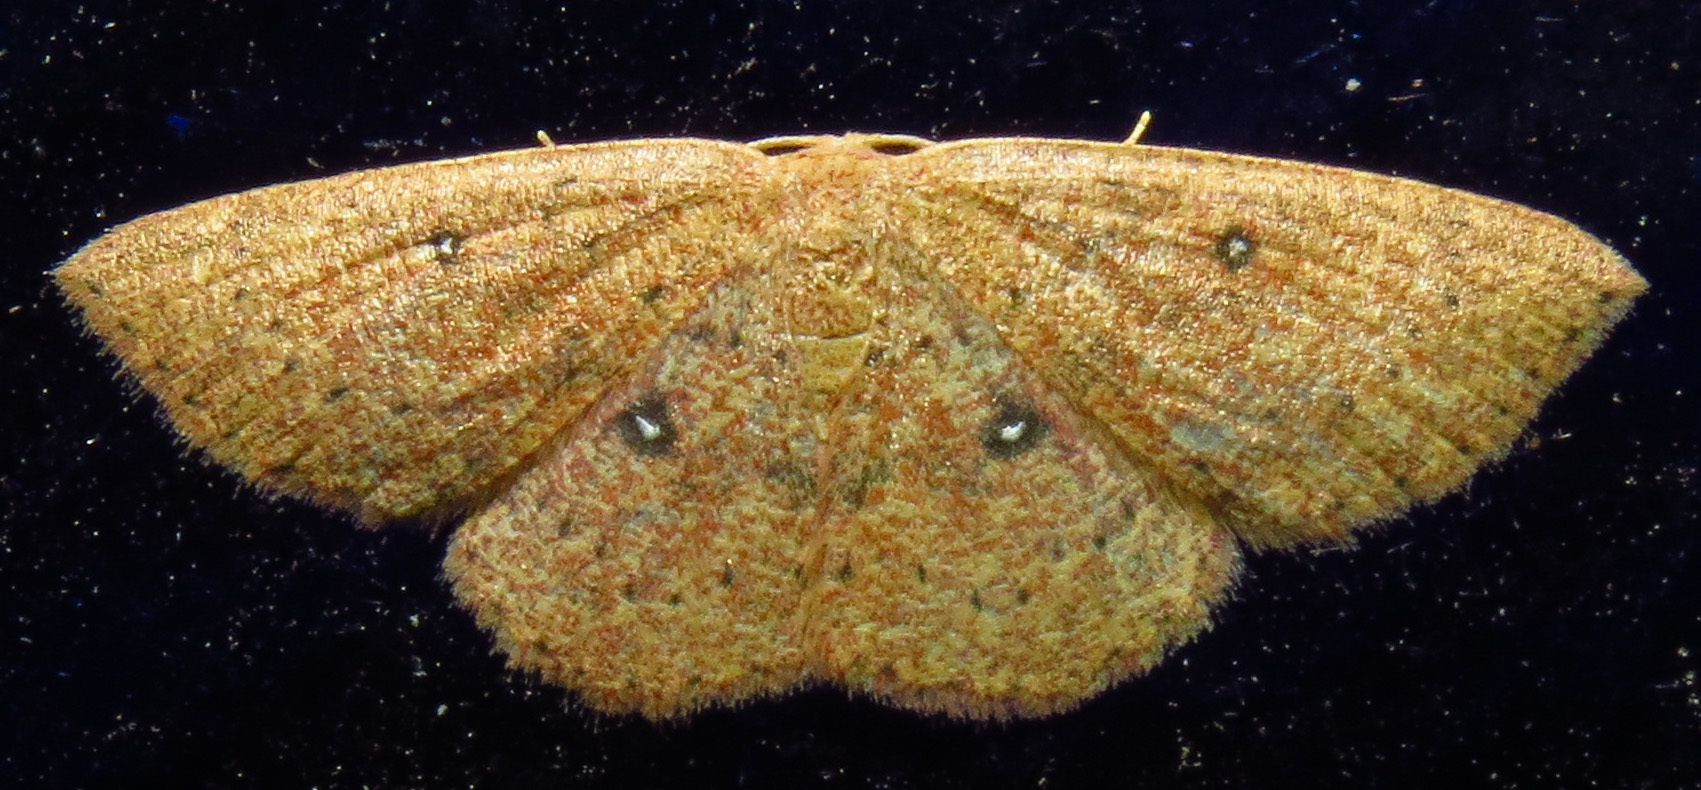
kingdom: Animalia
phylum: Arthropoda
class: Insecta
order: Lepidoptera
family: Geometridae
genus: Cyclophora
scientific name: Cyclophora packardi
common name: Packard's wave
